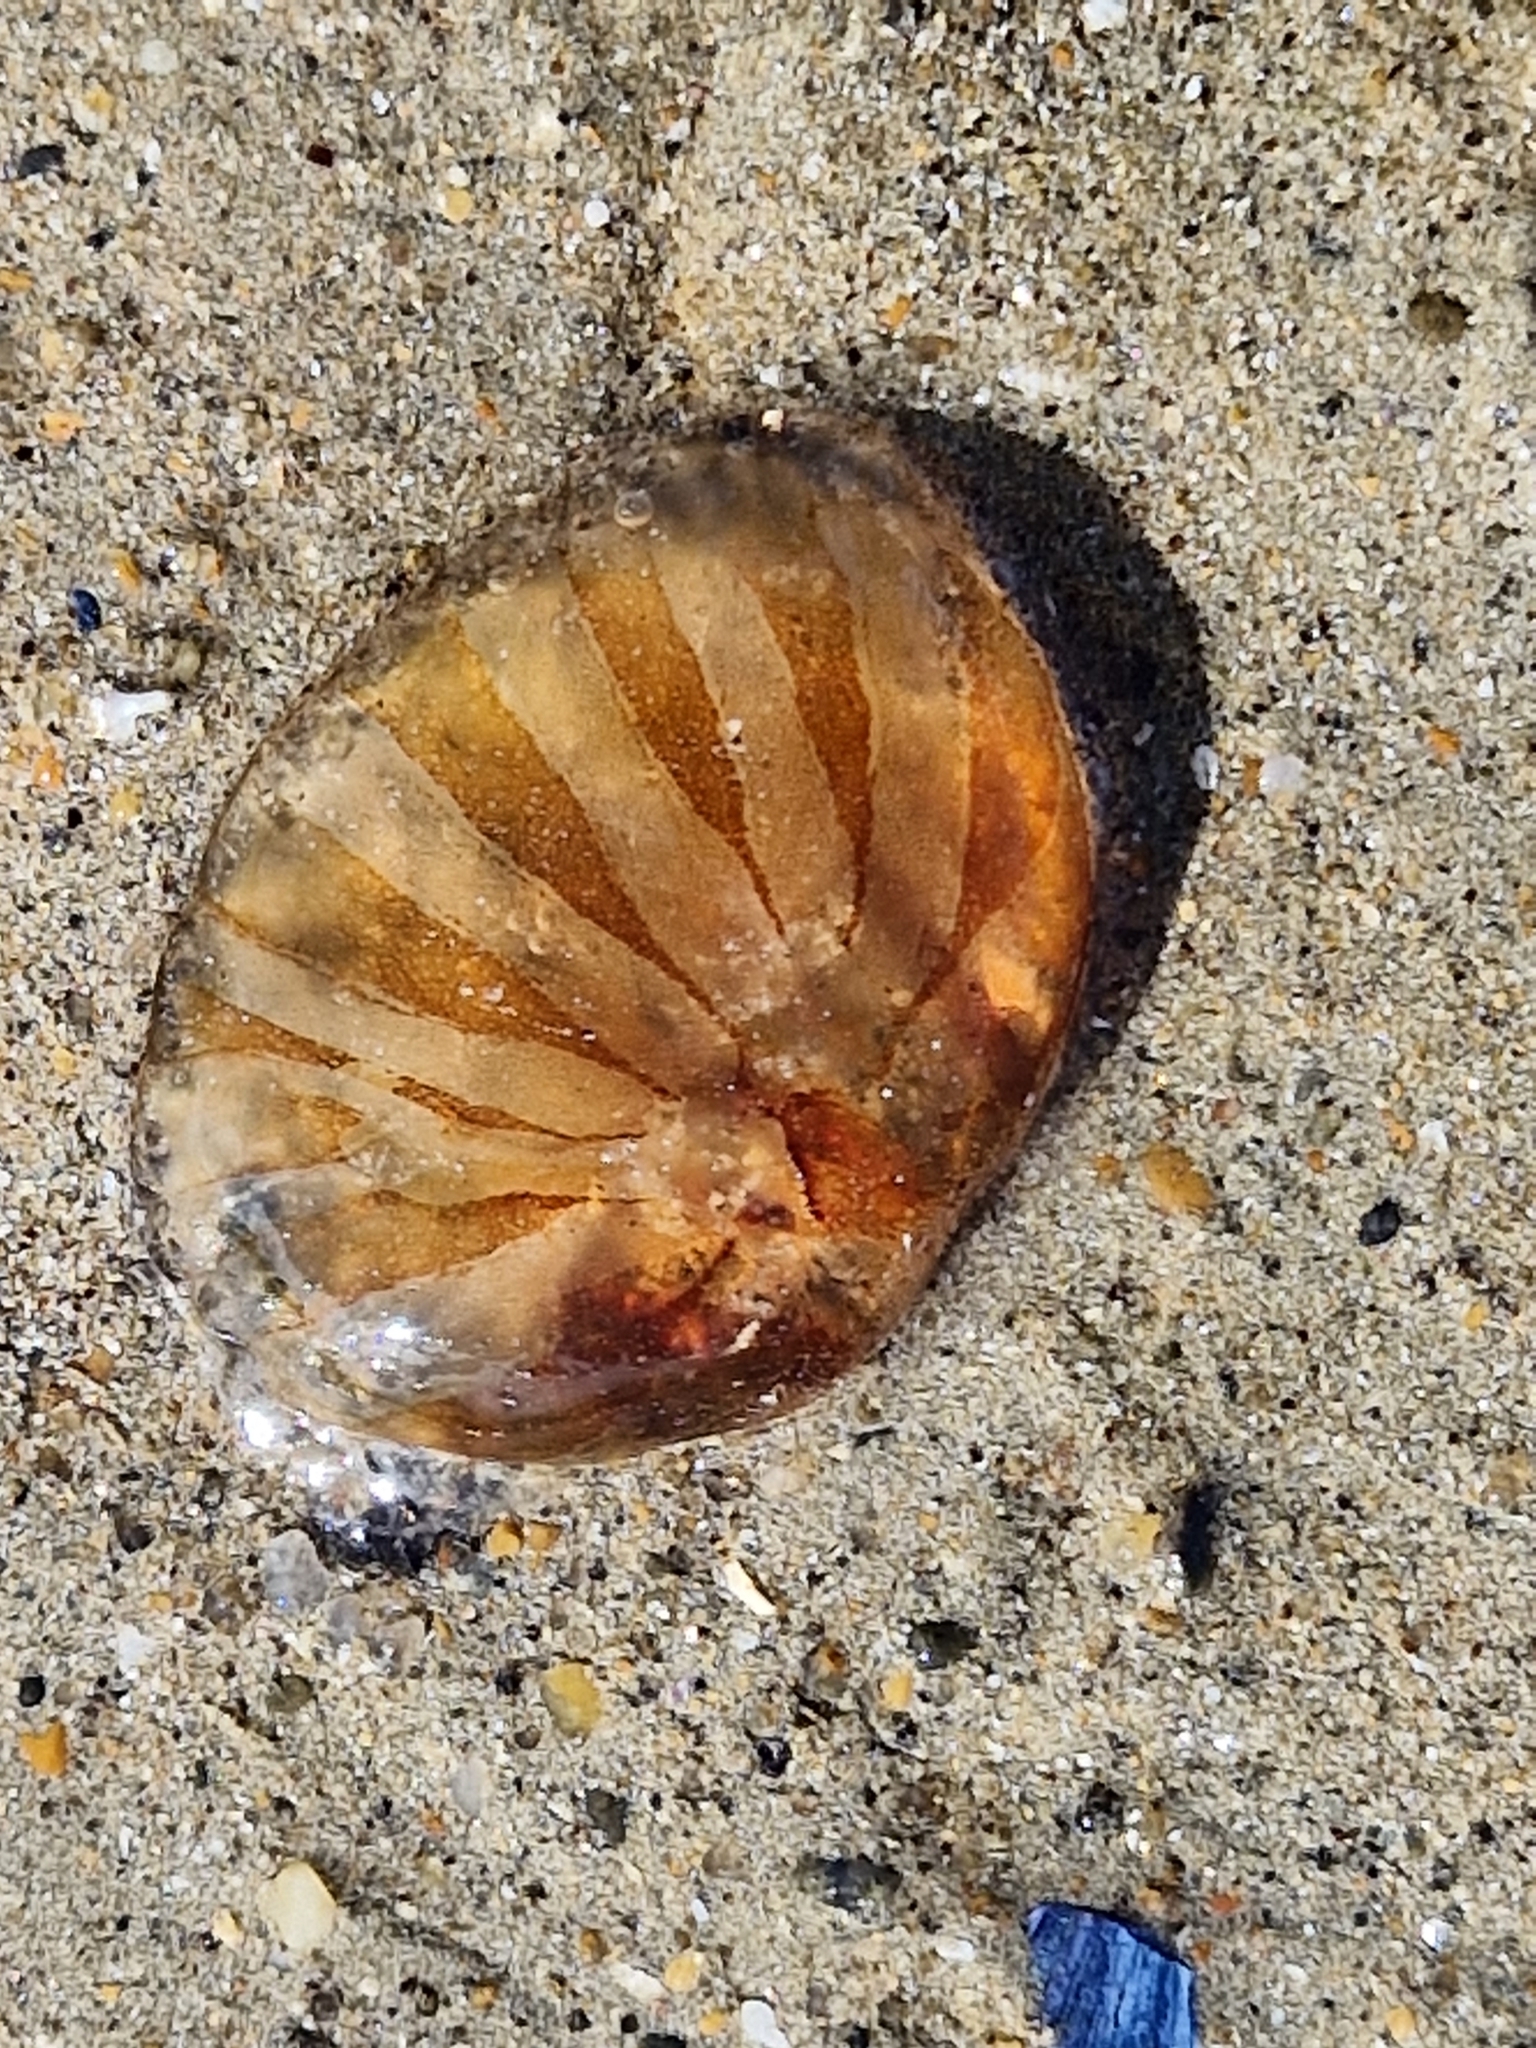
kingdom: Animalia
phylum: Cnidaria
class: Scyphozoa
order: Semaeostomeae
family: Pelagiidae
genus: Chrysaora
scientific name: Chrysaora hysoscella
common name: Compass jellyfish
